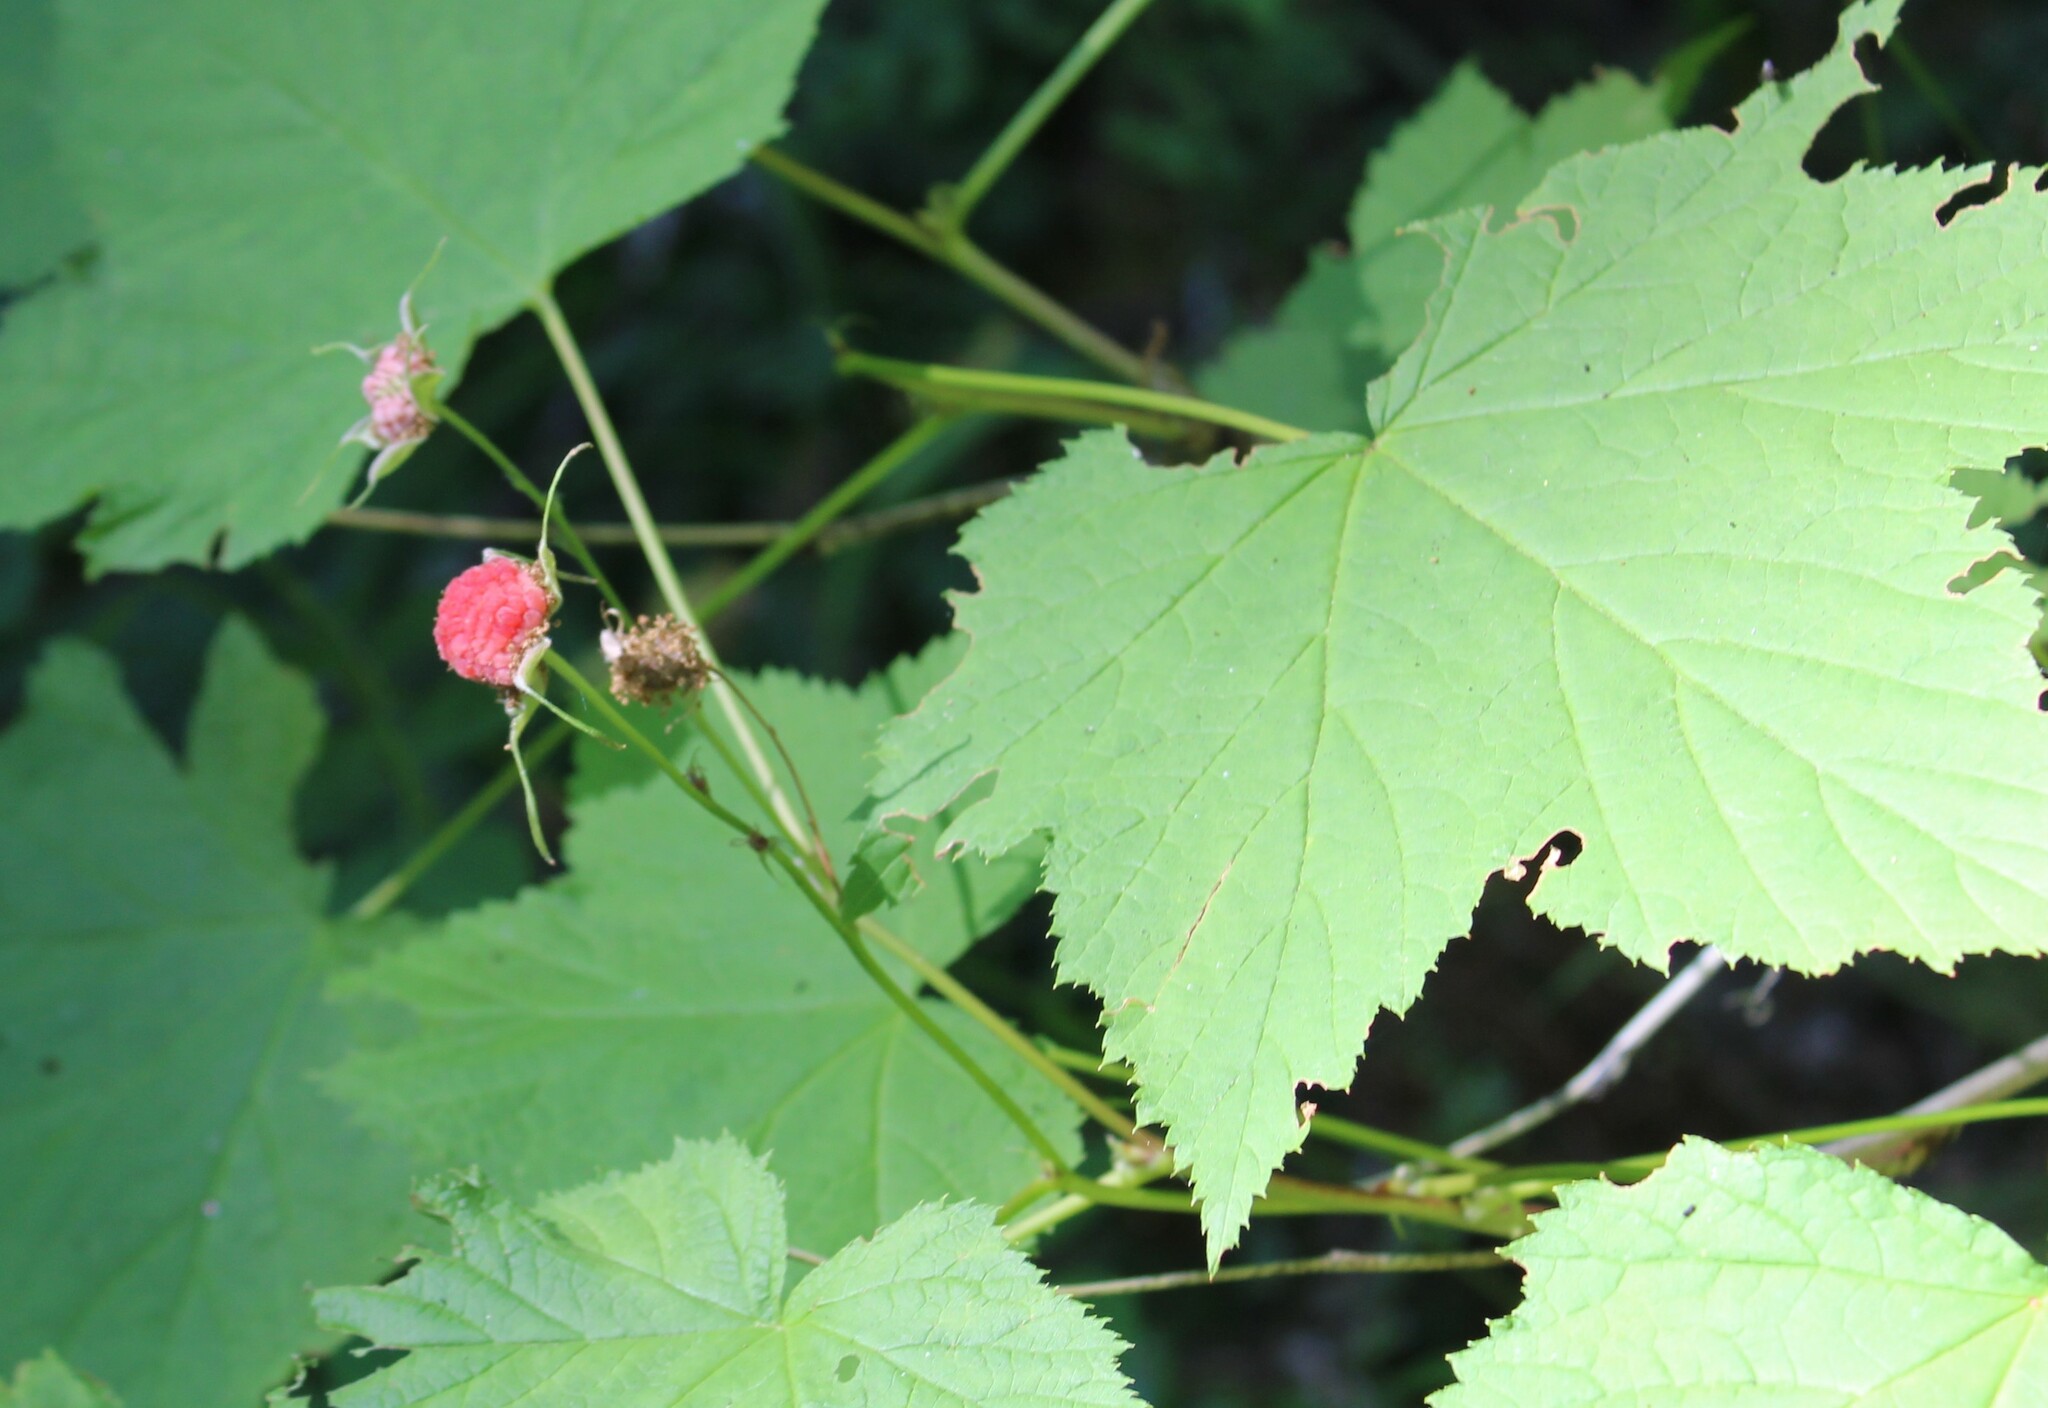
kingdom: Plantae
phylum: Tracheophyta
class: Magnoliopsida
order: Rosales
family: Rosaceae
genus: Rubus
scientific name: Rubus parviflorus
